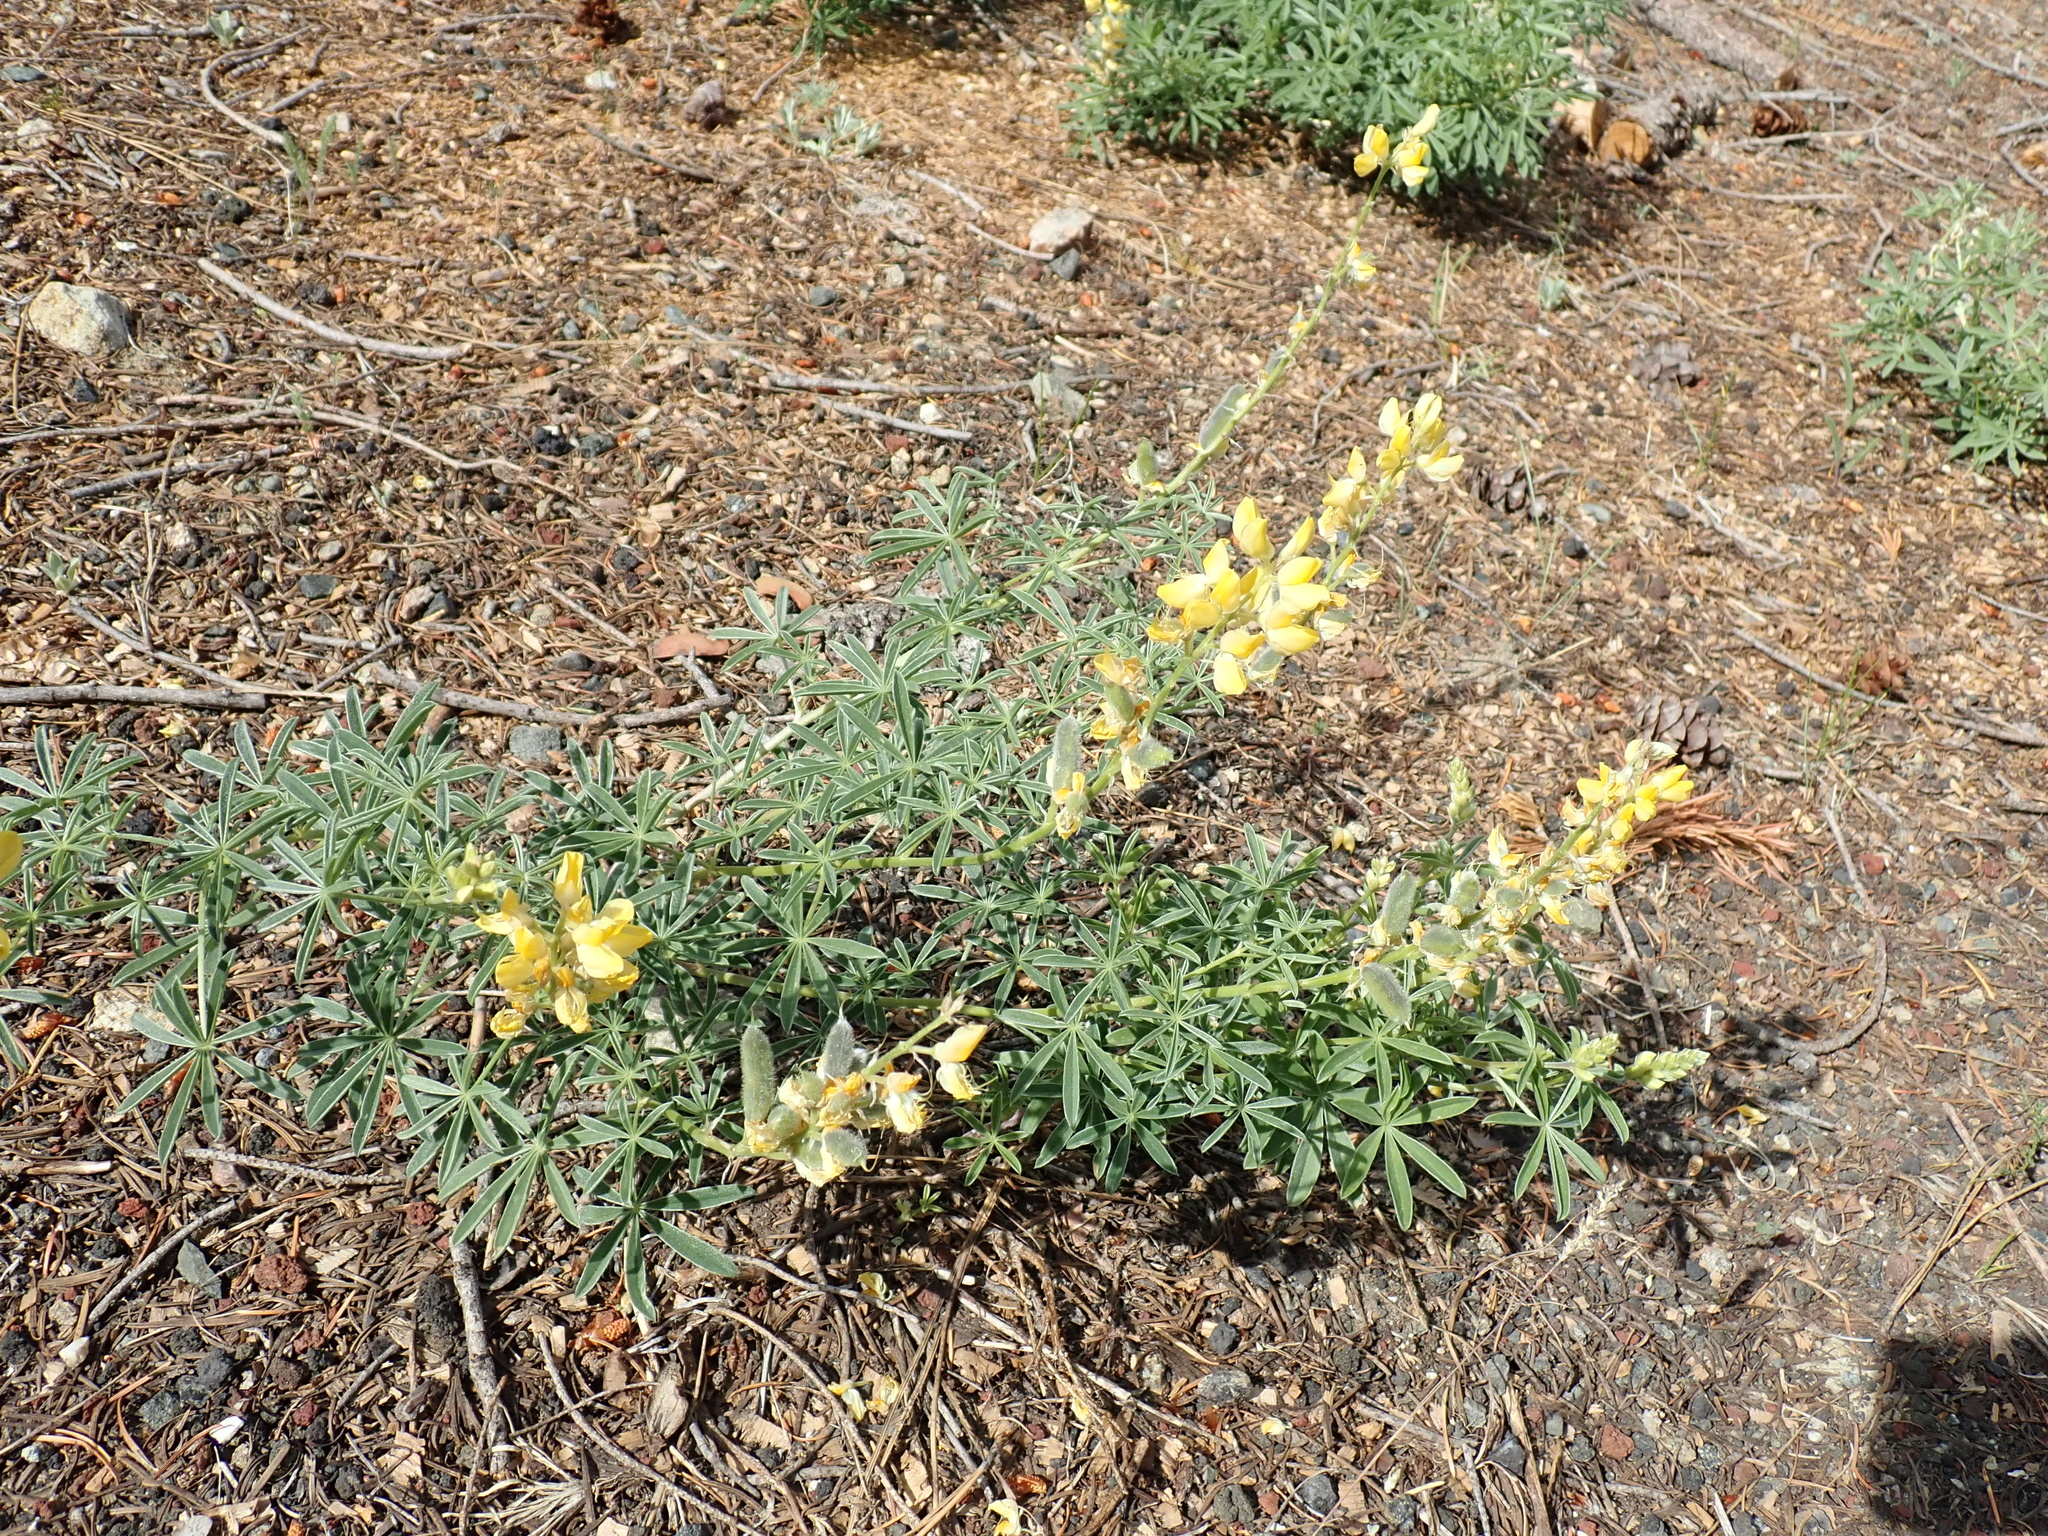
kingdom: Plantae
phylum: Tracheophyta
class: Magnoliopsida
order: Fabales
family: Fabaceae
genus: Lupinus
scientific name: Lupinus croceus
